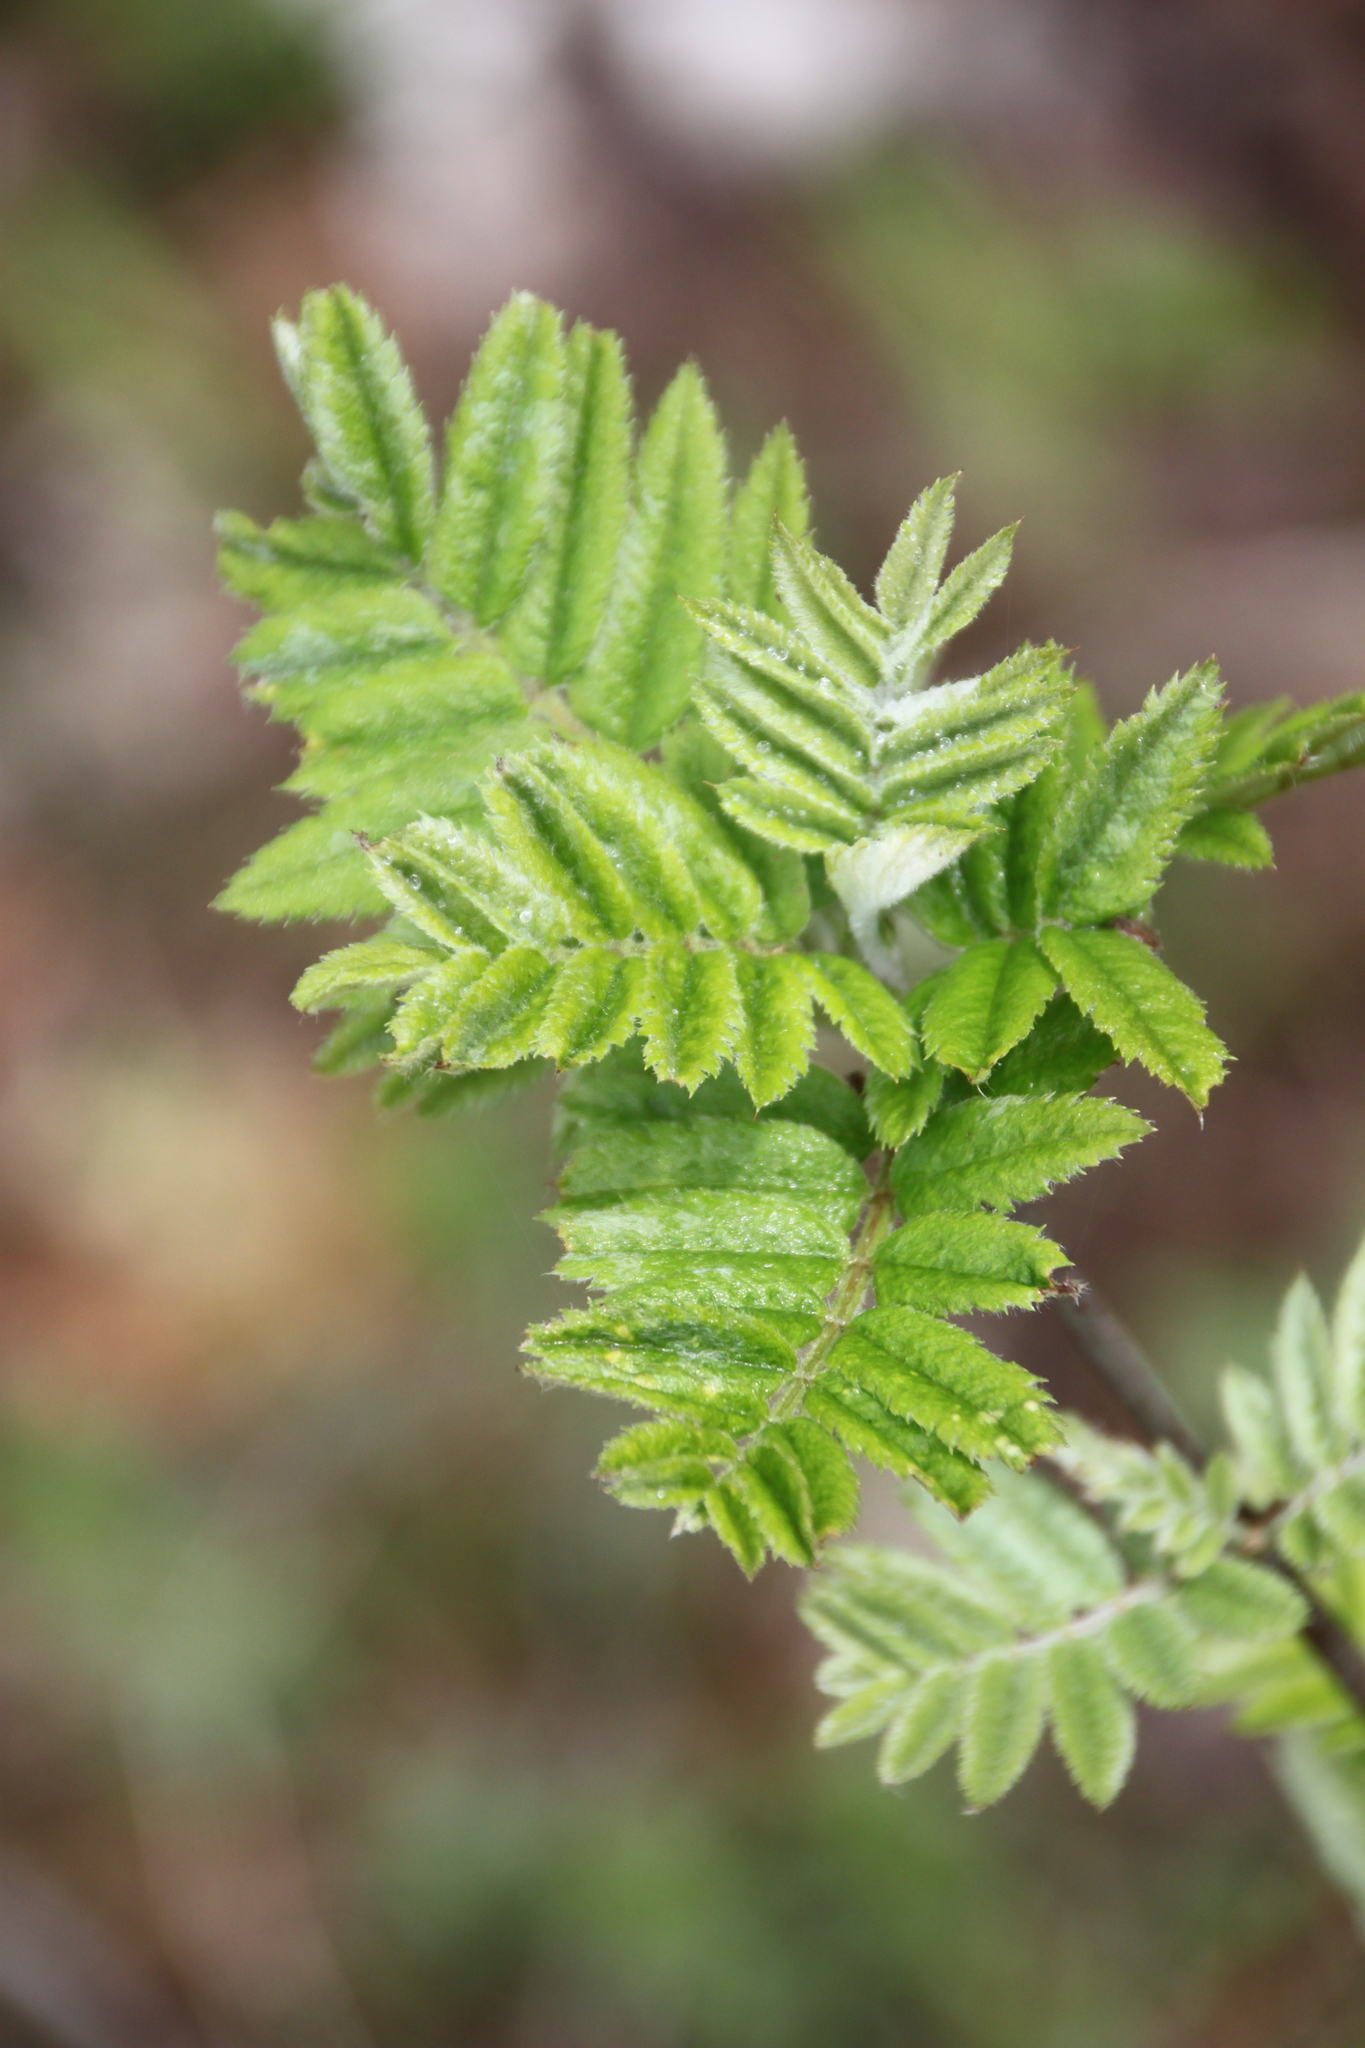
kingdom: Plantae
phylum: Tracheophyta
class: Magnoliopsida
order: Rosales
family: Rosaceae
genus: Sorbus
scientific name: Sorbus aucuparia
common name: Rowan
